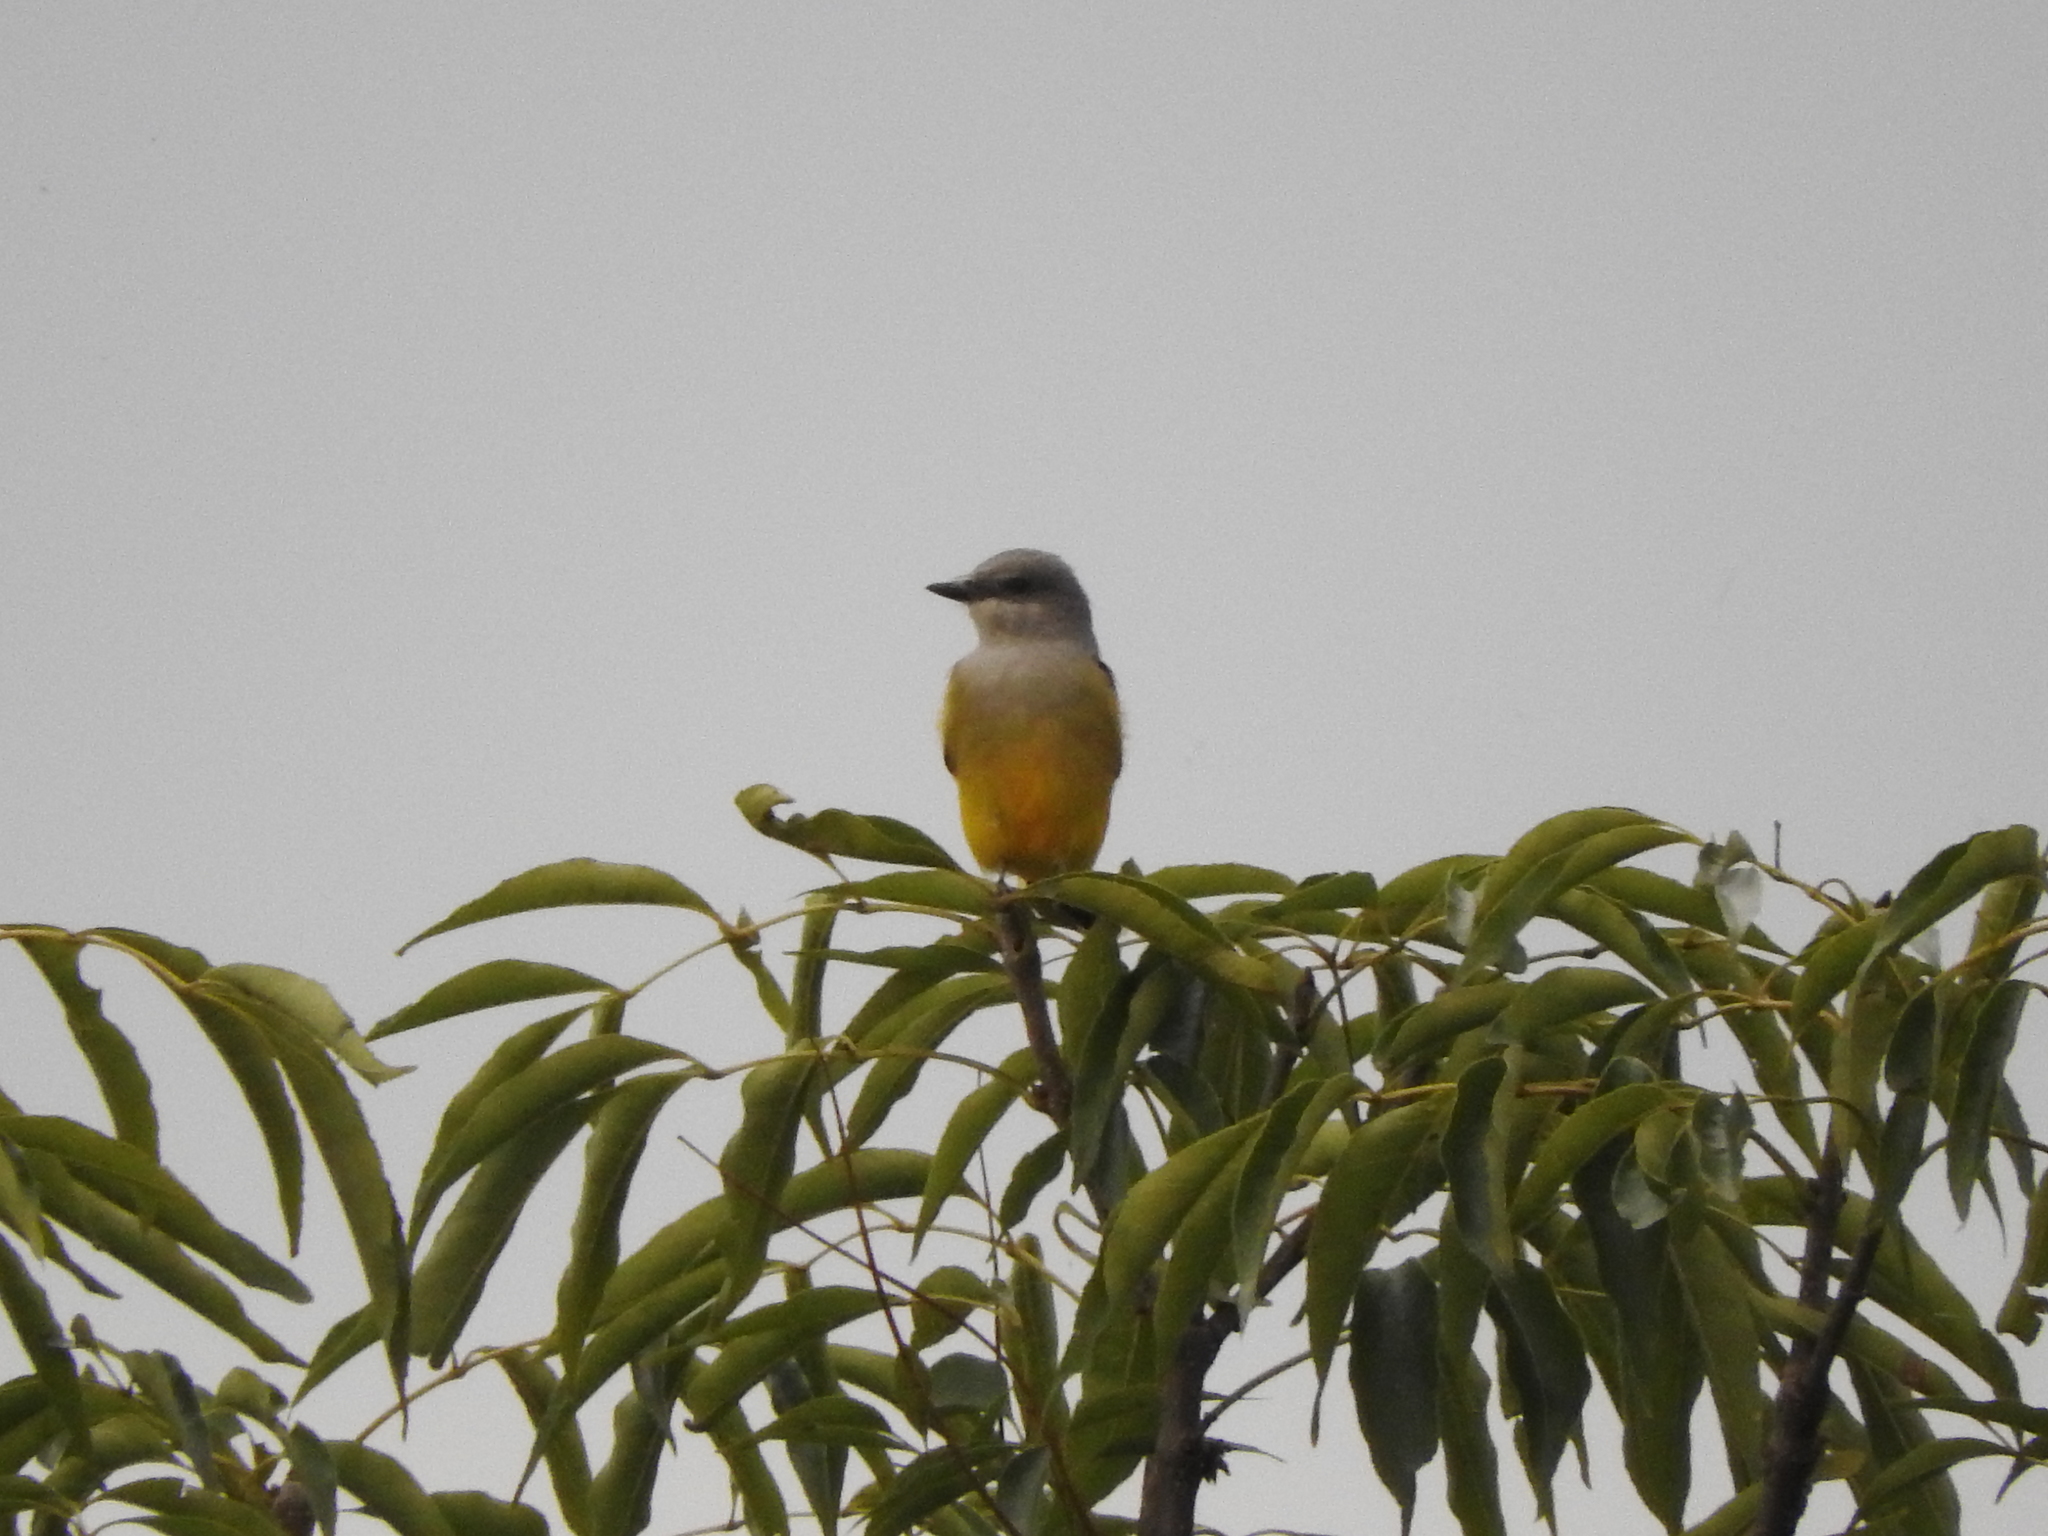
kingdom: Animalia
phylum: Chordata
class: Aves
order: Passeriformes
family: Tyrannidae
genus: Tyrannus
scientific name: Tyrannus vociferans
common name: Cassin's kingbird
